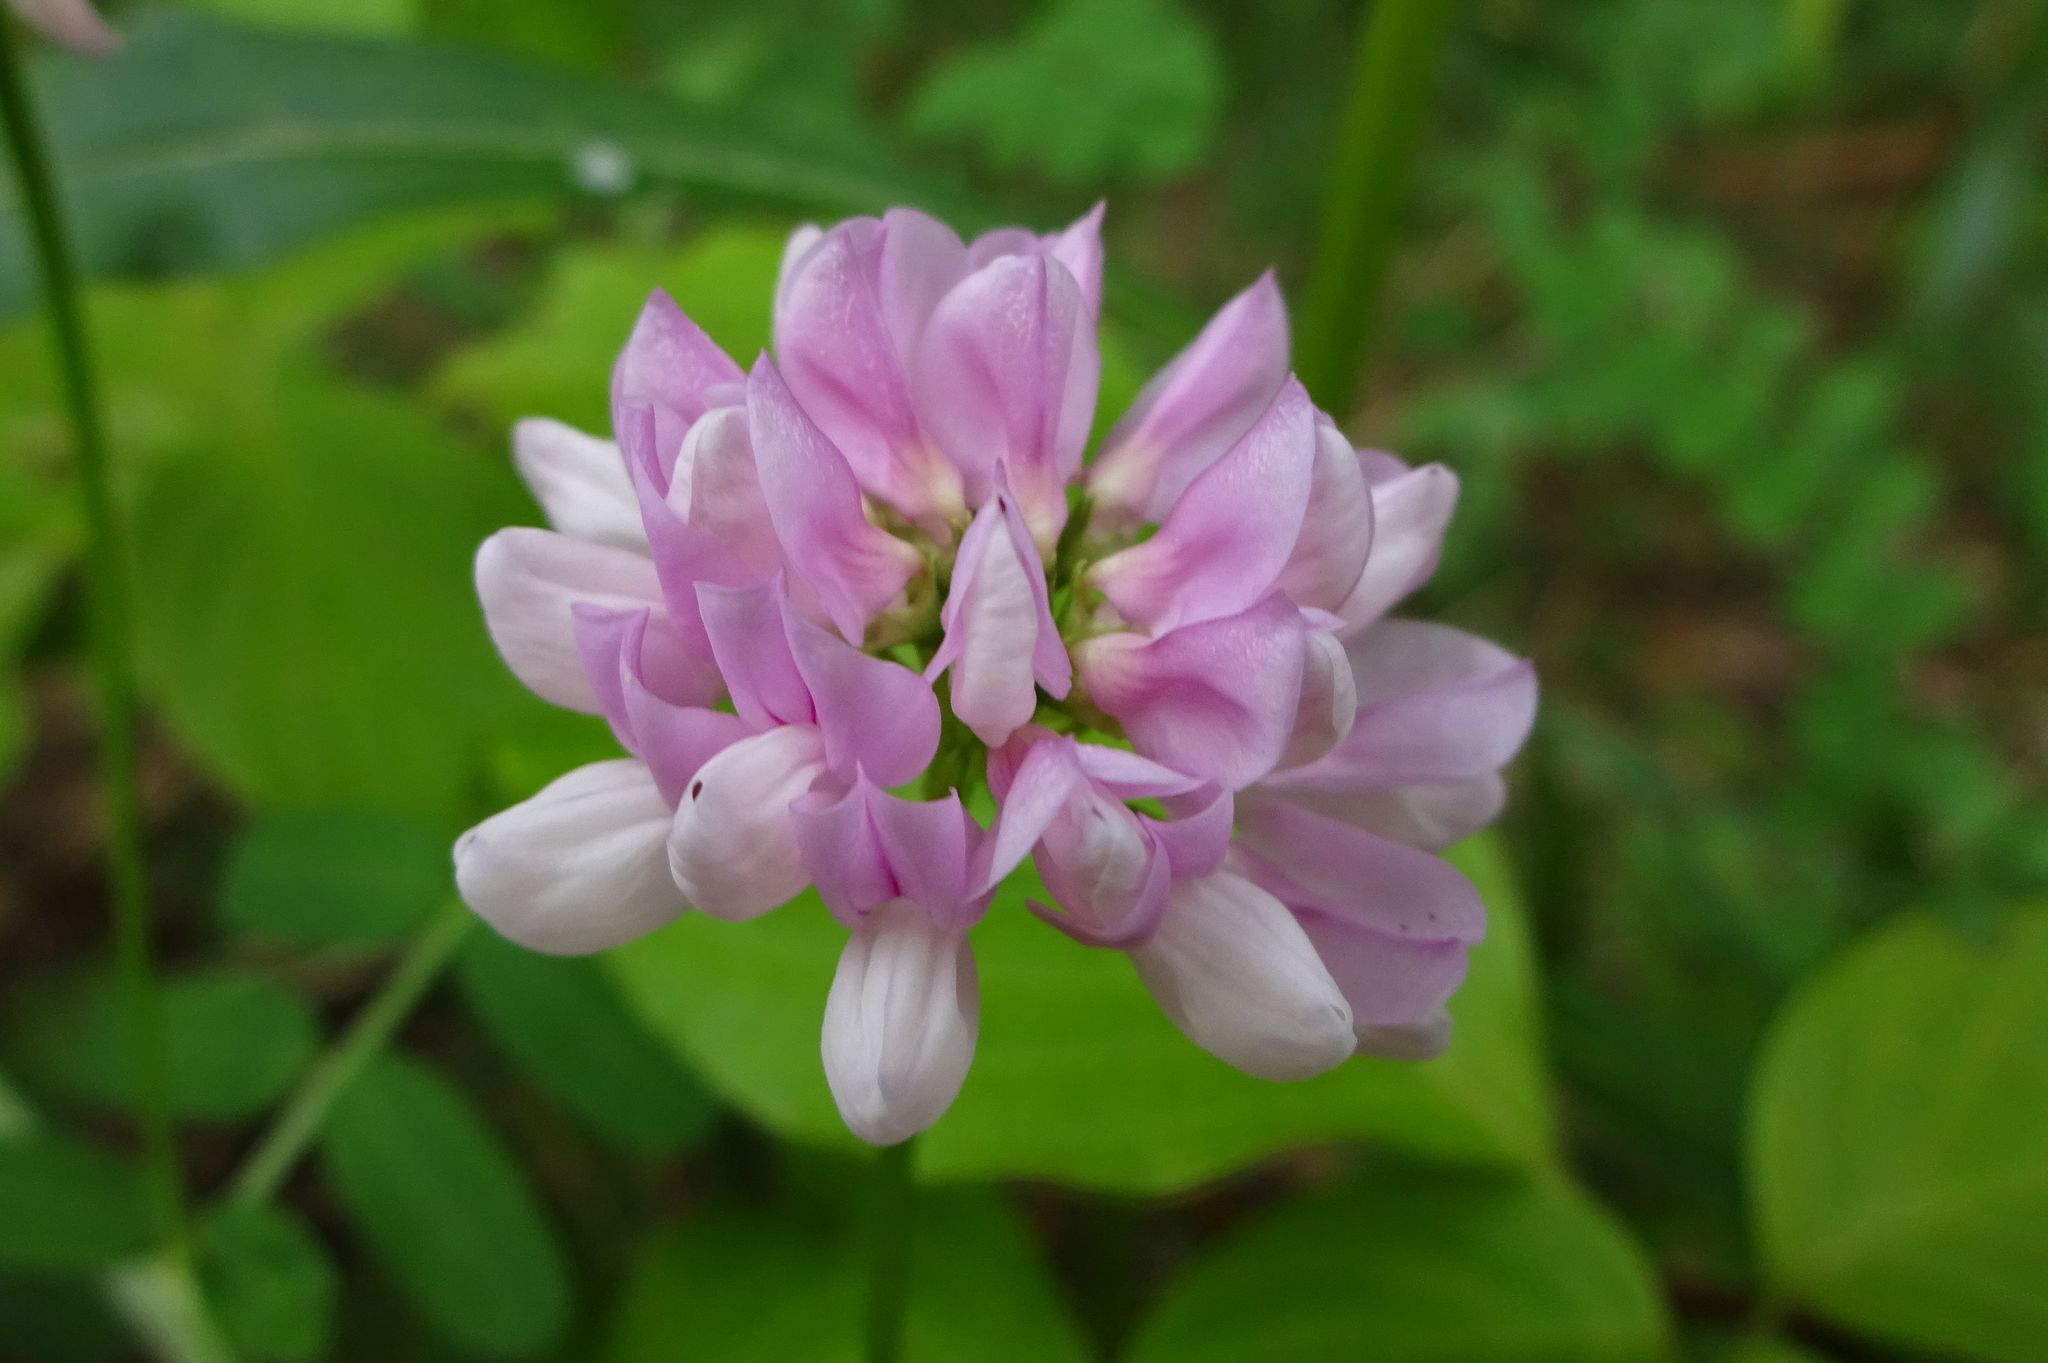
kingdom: Plantae
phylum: Tracheophyta
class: Magnoliopsida
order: Fabales
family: Fabaceae
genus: Coronilla
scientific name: Coronilla varia
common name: Crownvetch
